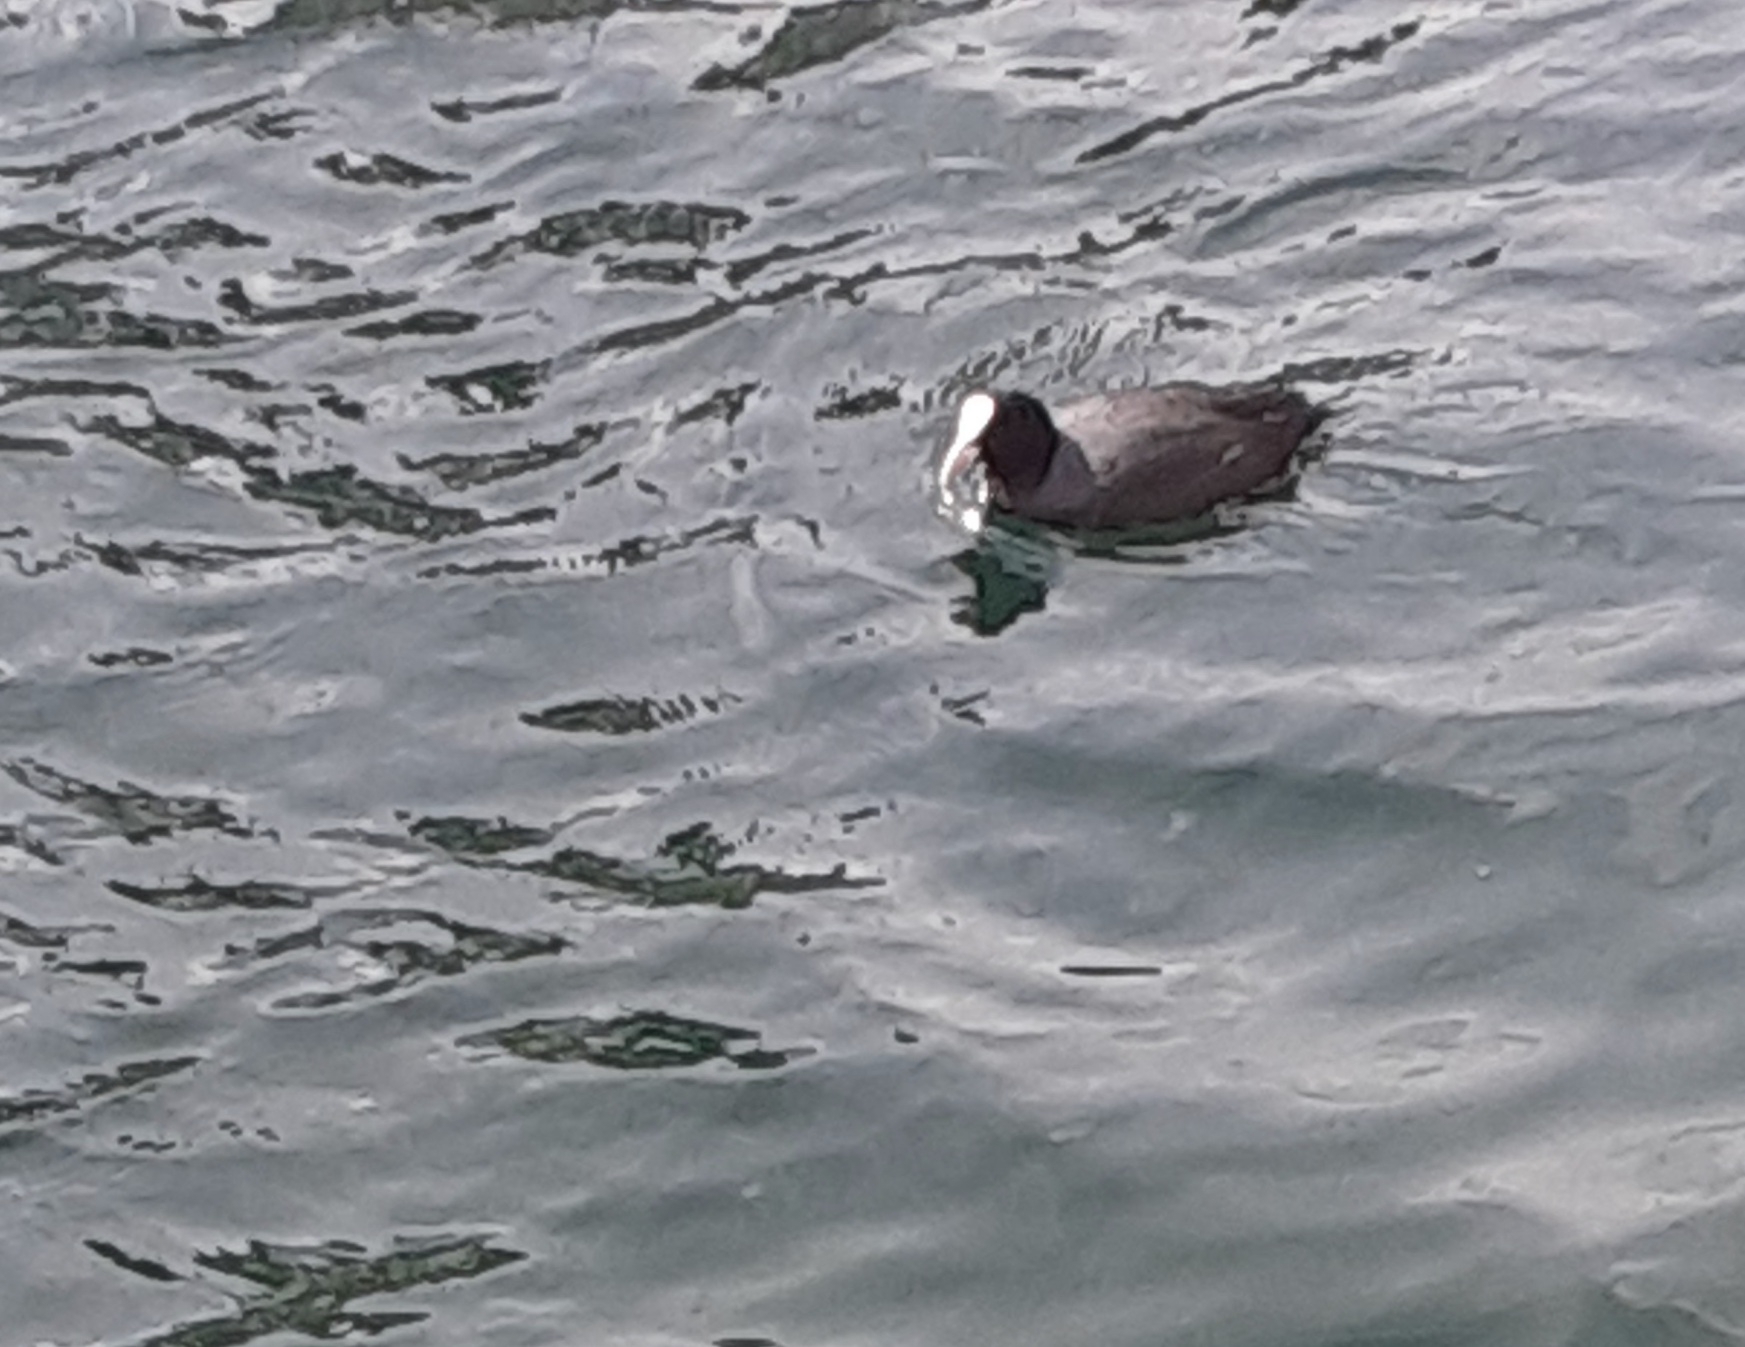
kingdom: Animalia
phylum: Chordata
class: Aves
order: Gruiformes
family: Rallidae
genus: Fulica
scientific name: Fulica atra
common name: Eurasian coot
